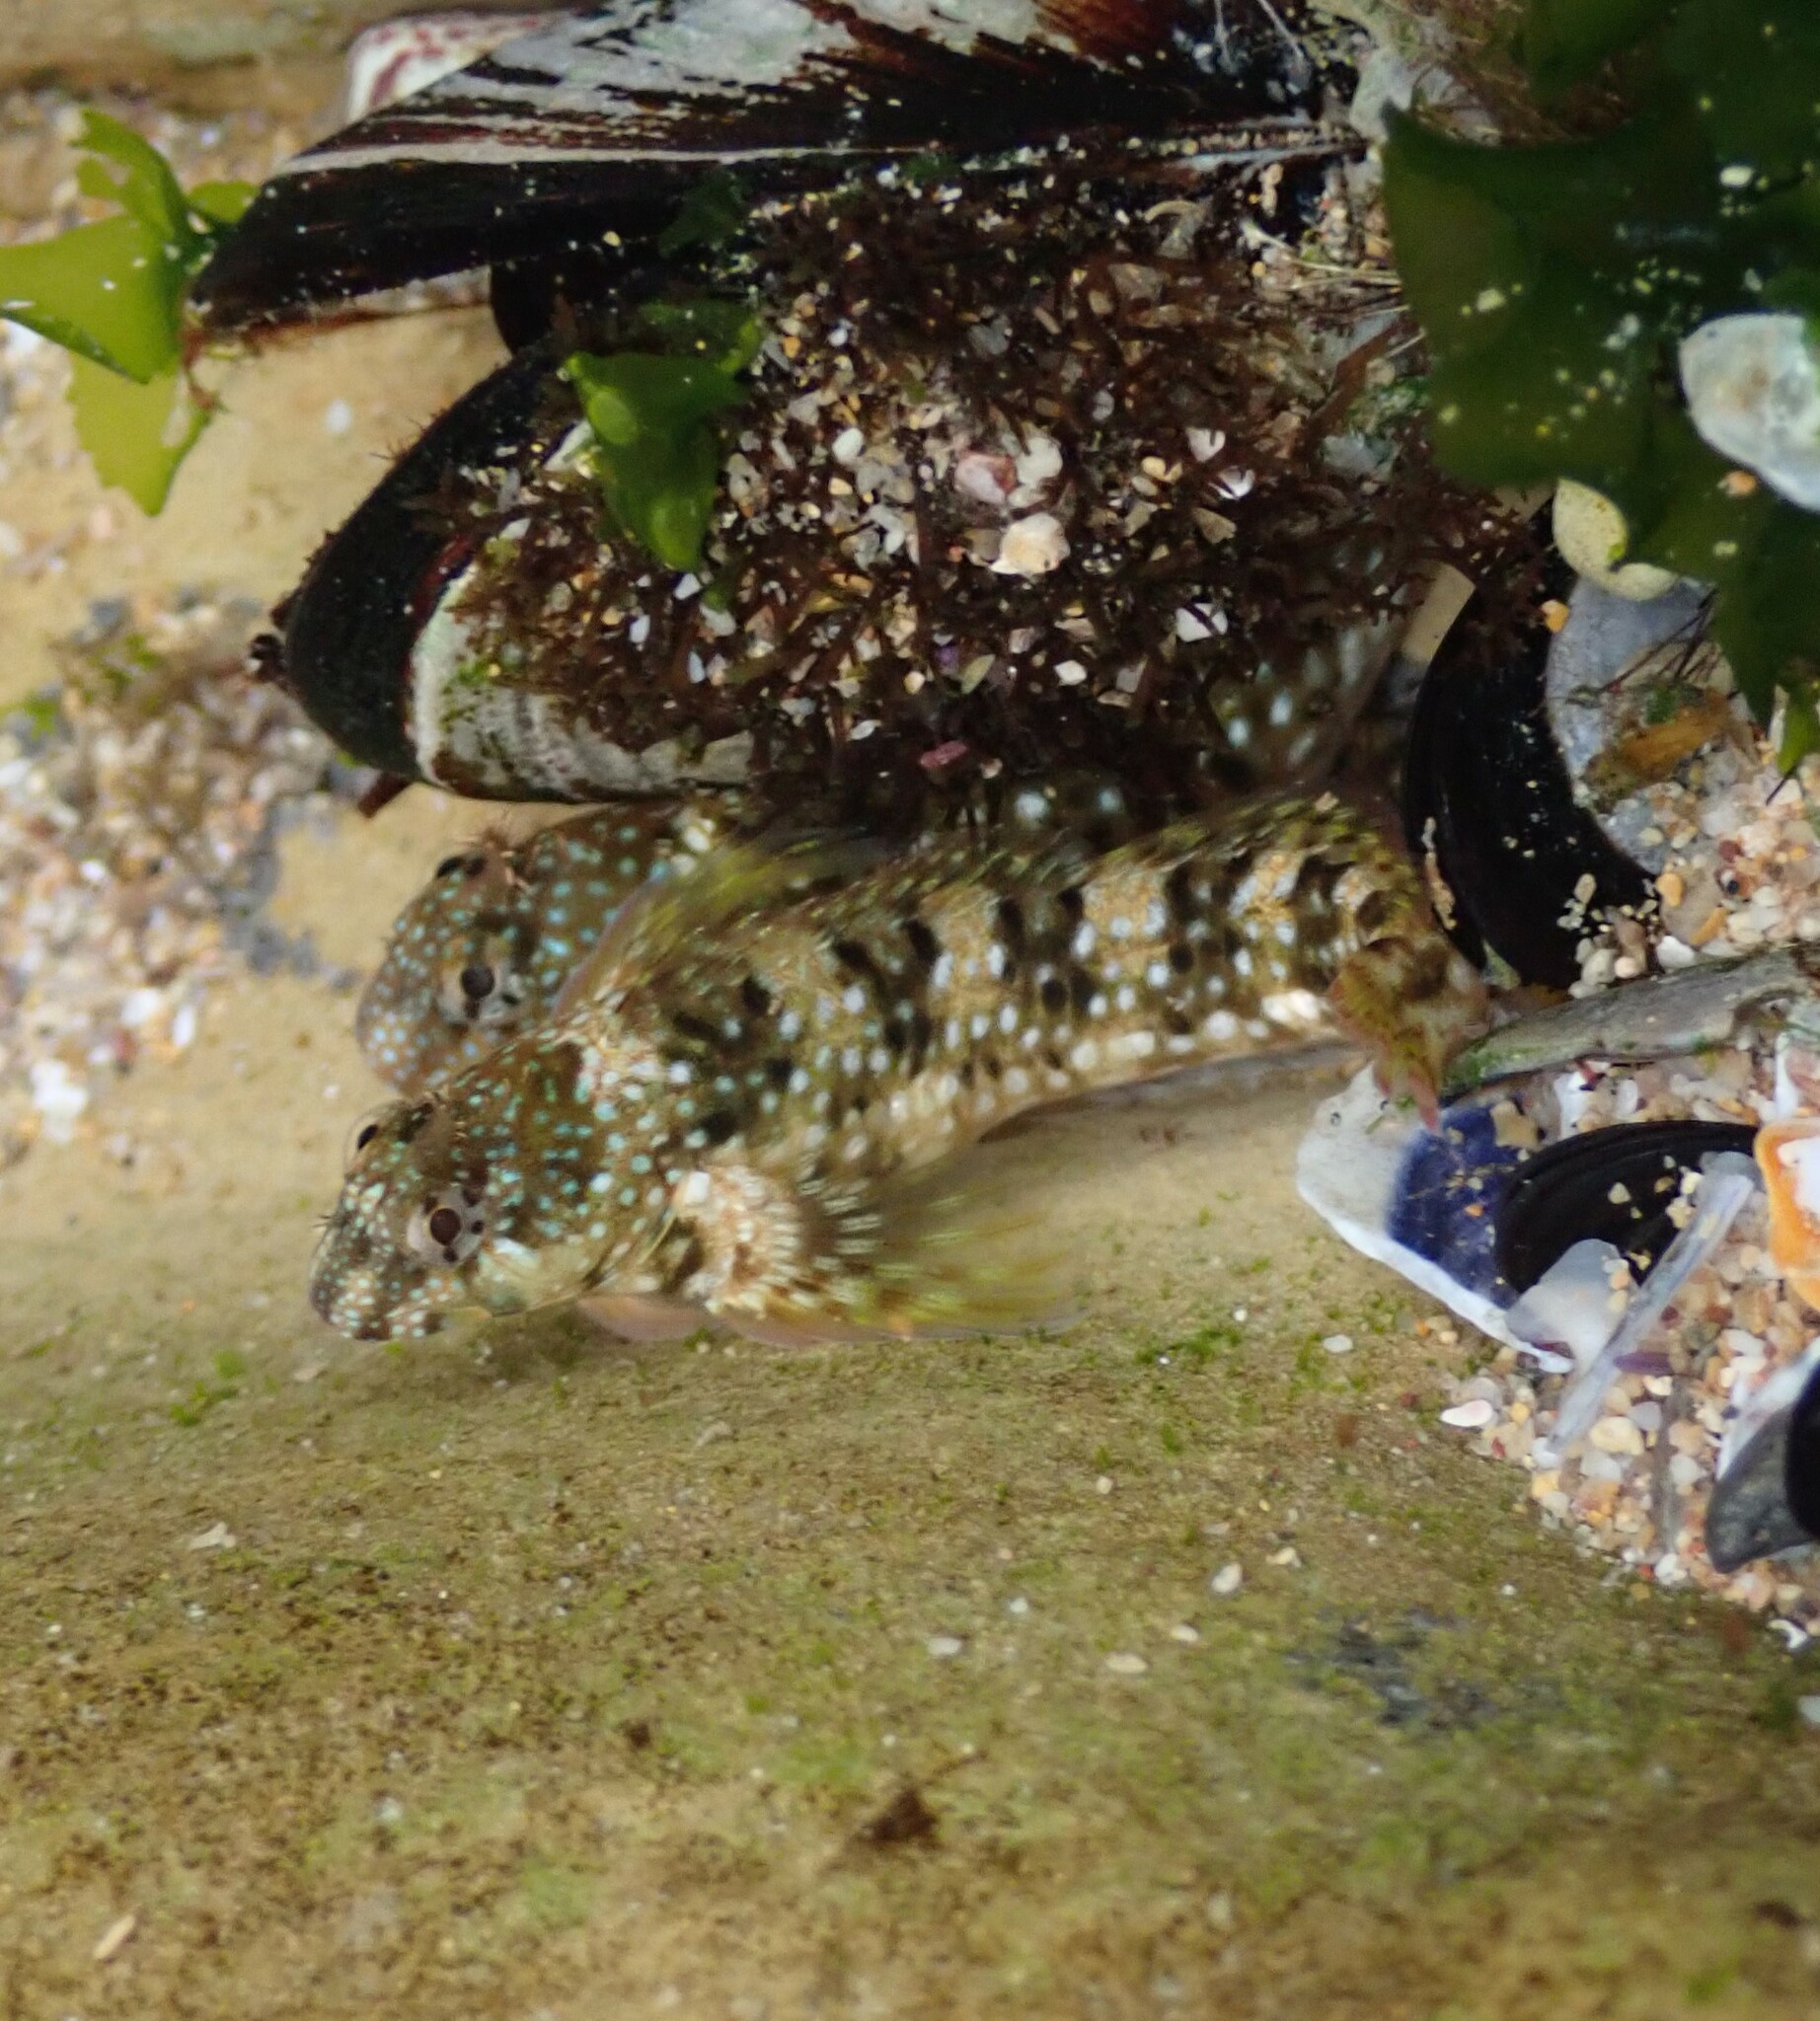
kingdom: Animalia
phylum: Chordata
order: Perciformes
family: Blenniidae
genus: Coryphoblennius
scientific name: Coryphoblennius galerita
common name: Montagu's blenny
